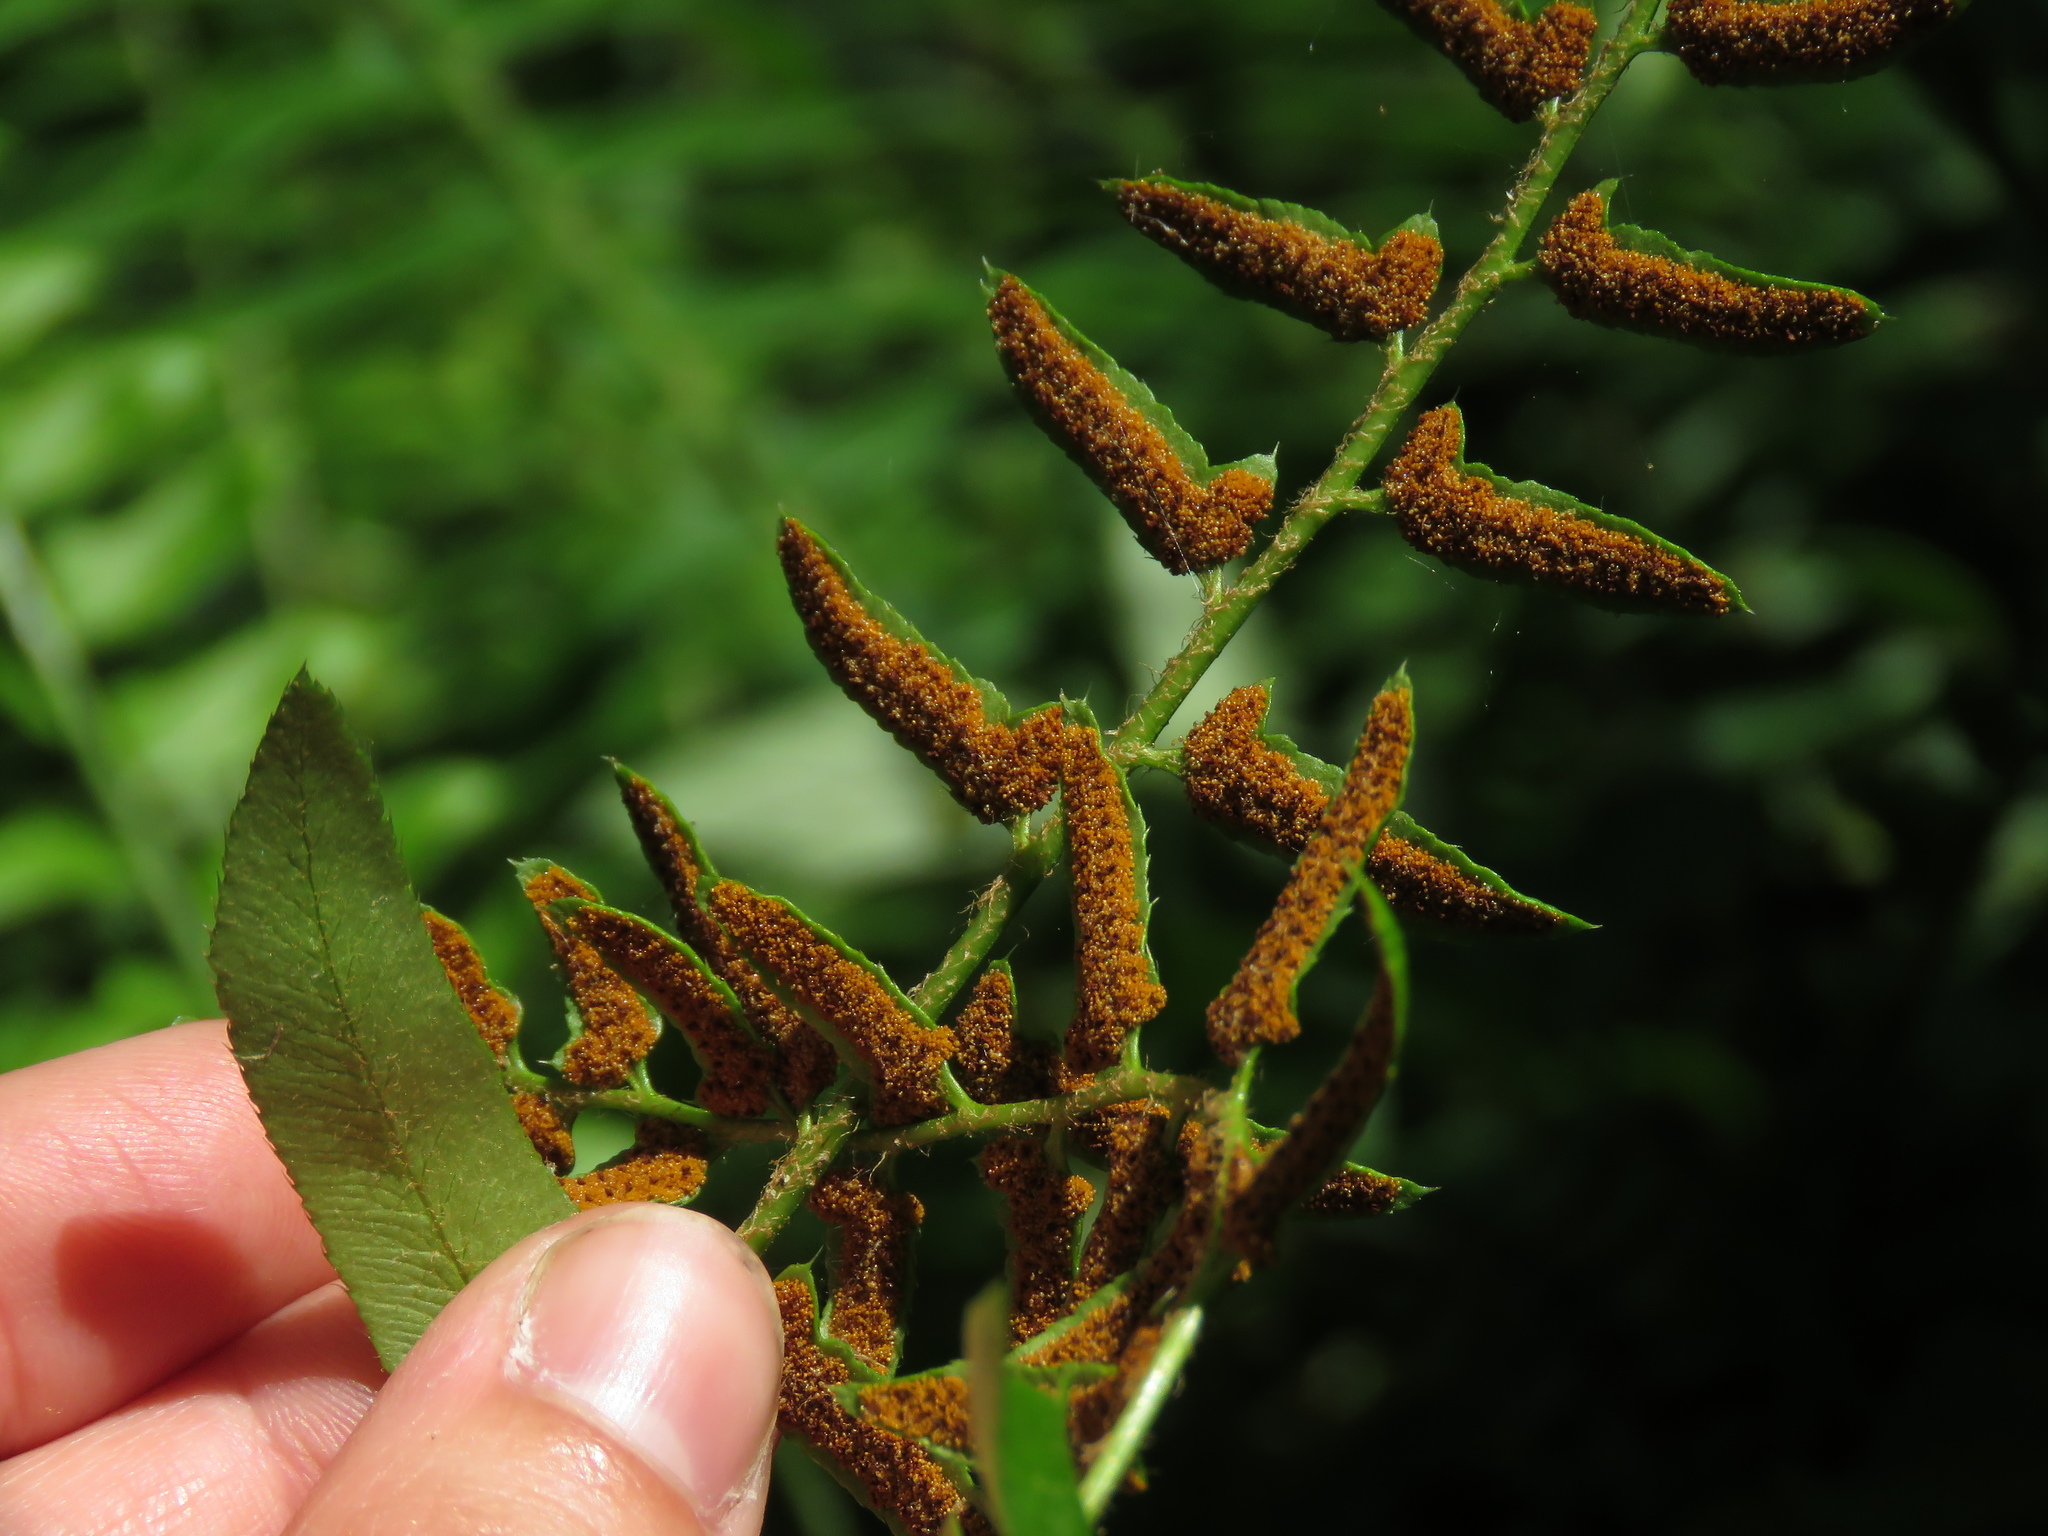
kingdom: Plantae
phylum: Tracheophyta
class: Polypodiopsida
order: Polypodiales
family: Dryopteridaceae
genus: Polystichum
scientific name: Polystichum acrostichoides
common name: Christmas fern
